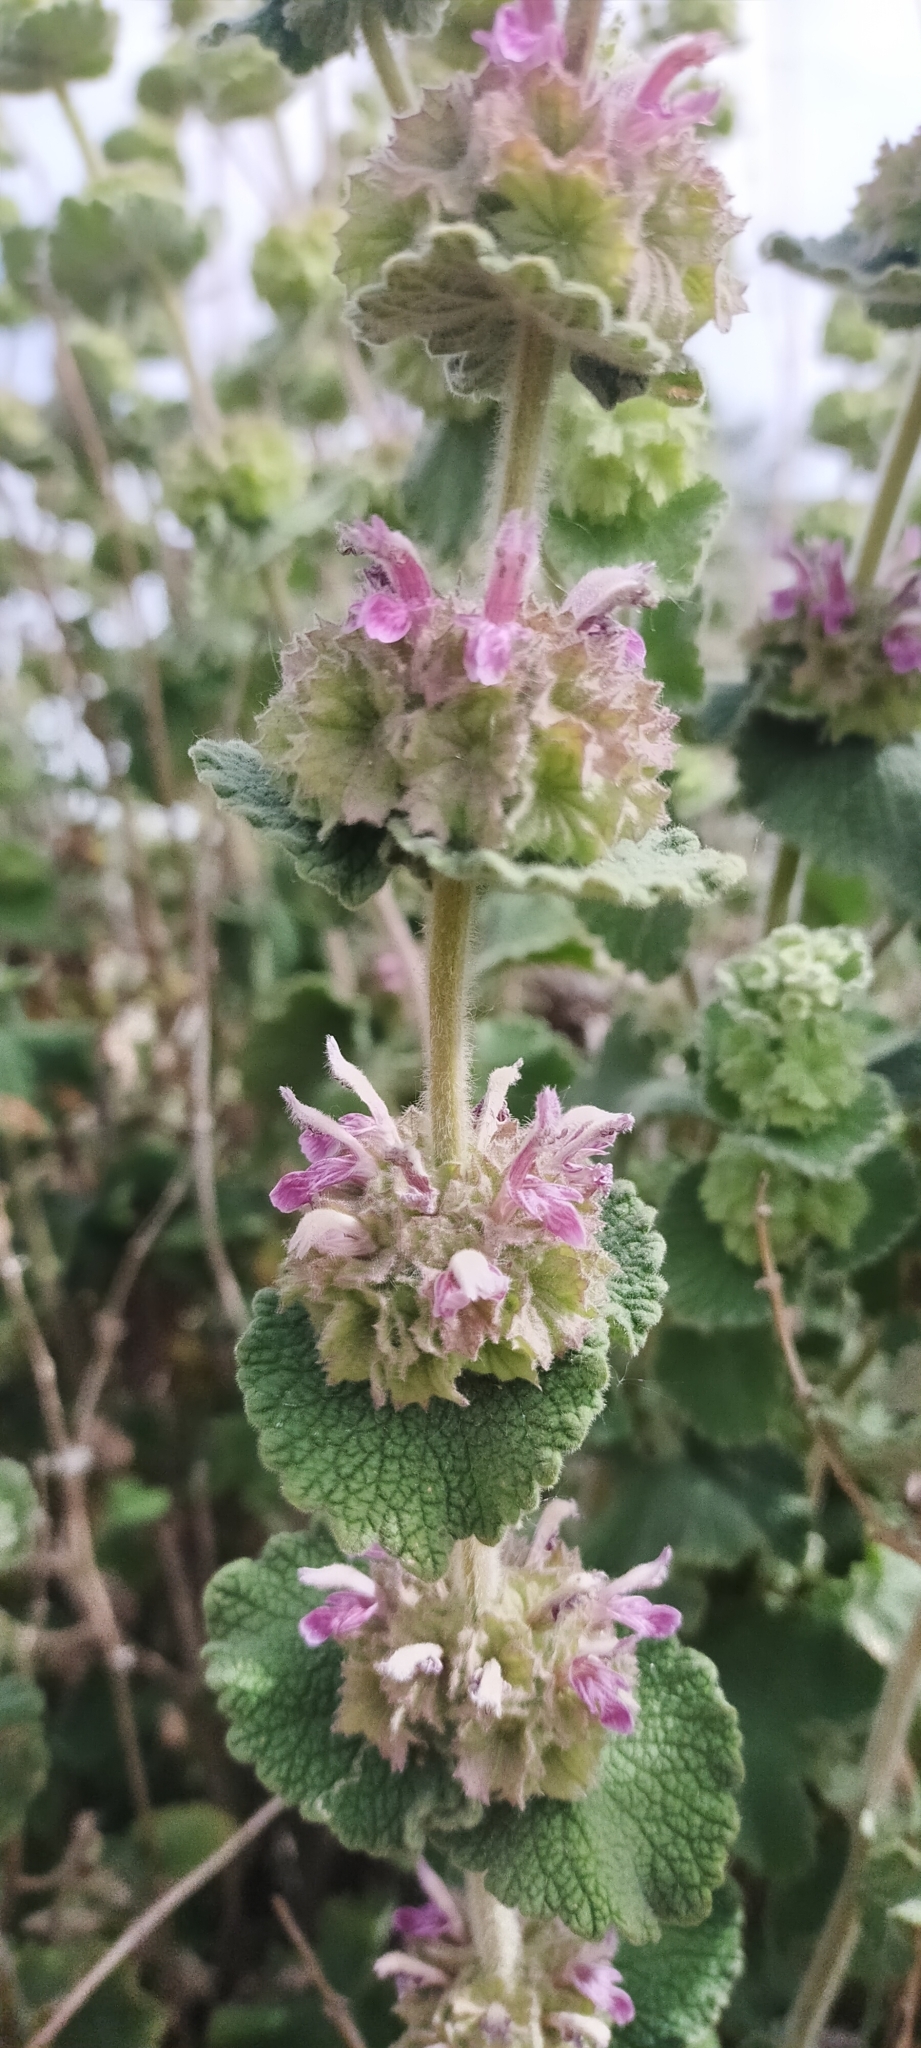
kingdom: Plantae
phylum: Tracheophyta
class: Magnoliopsida
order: Lamiales
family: Lamiaceae
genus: Pseudodictamnus
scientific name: Pseudodictamnus hirsutus
